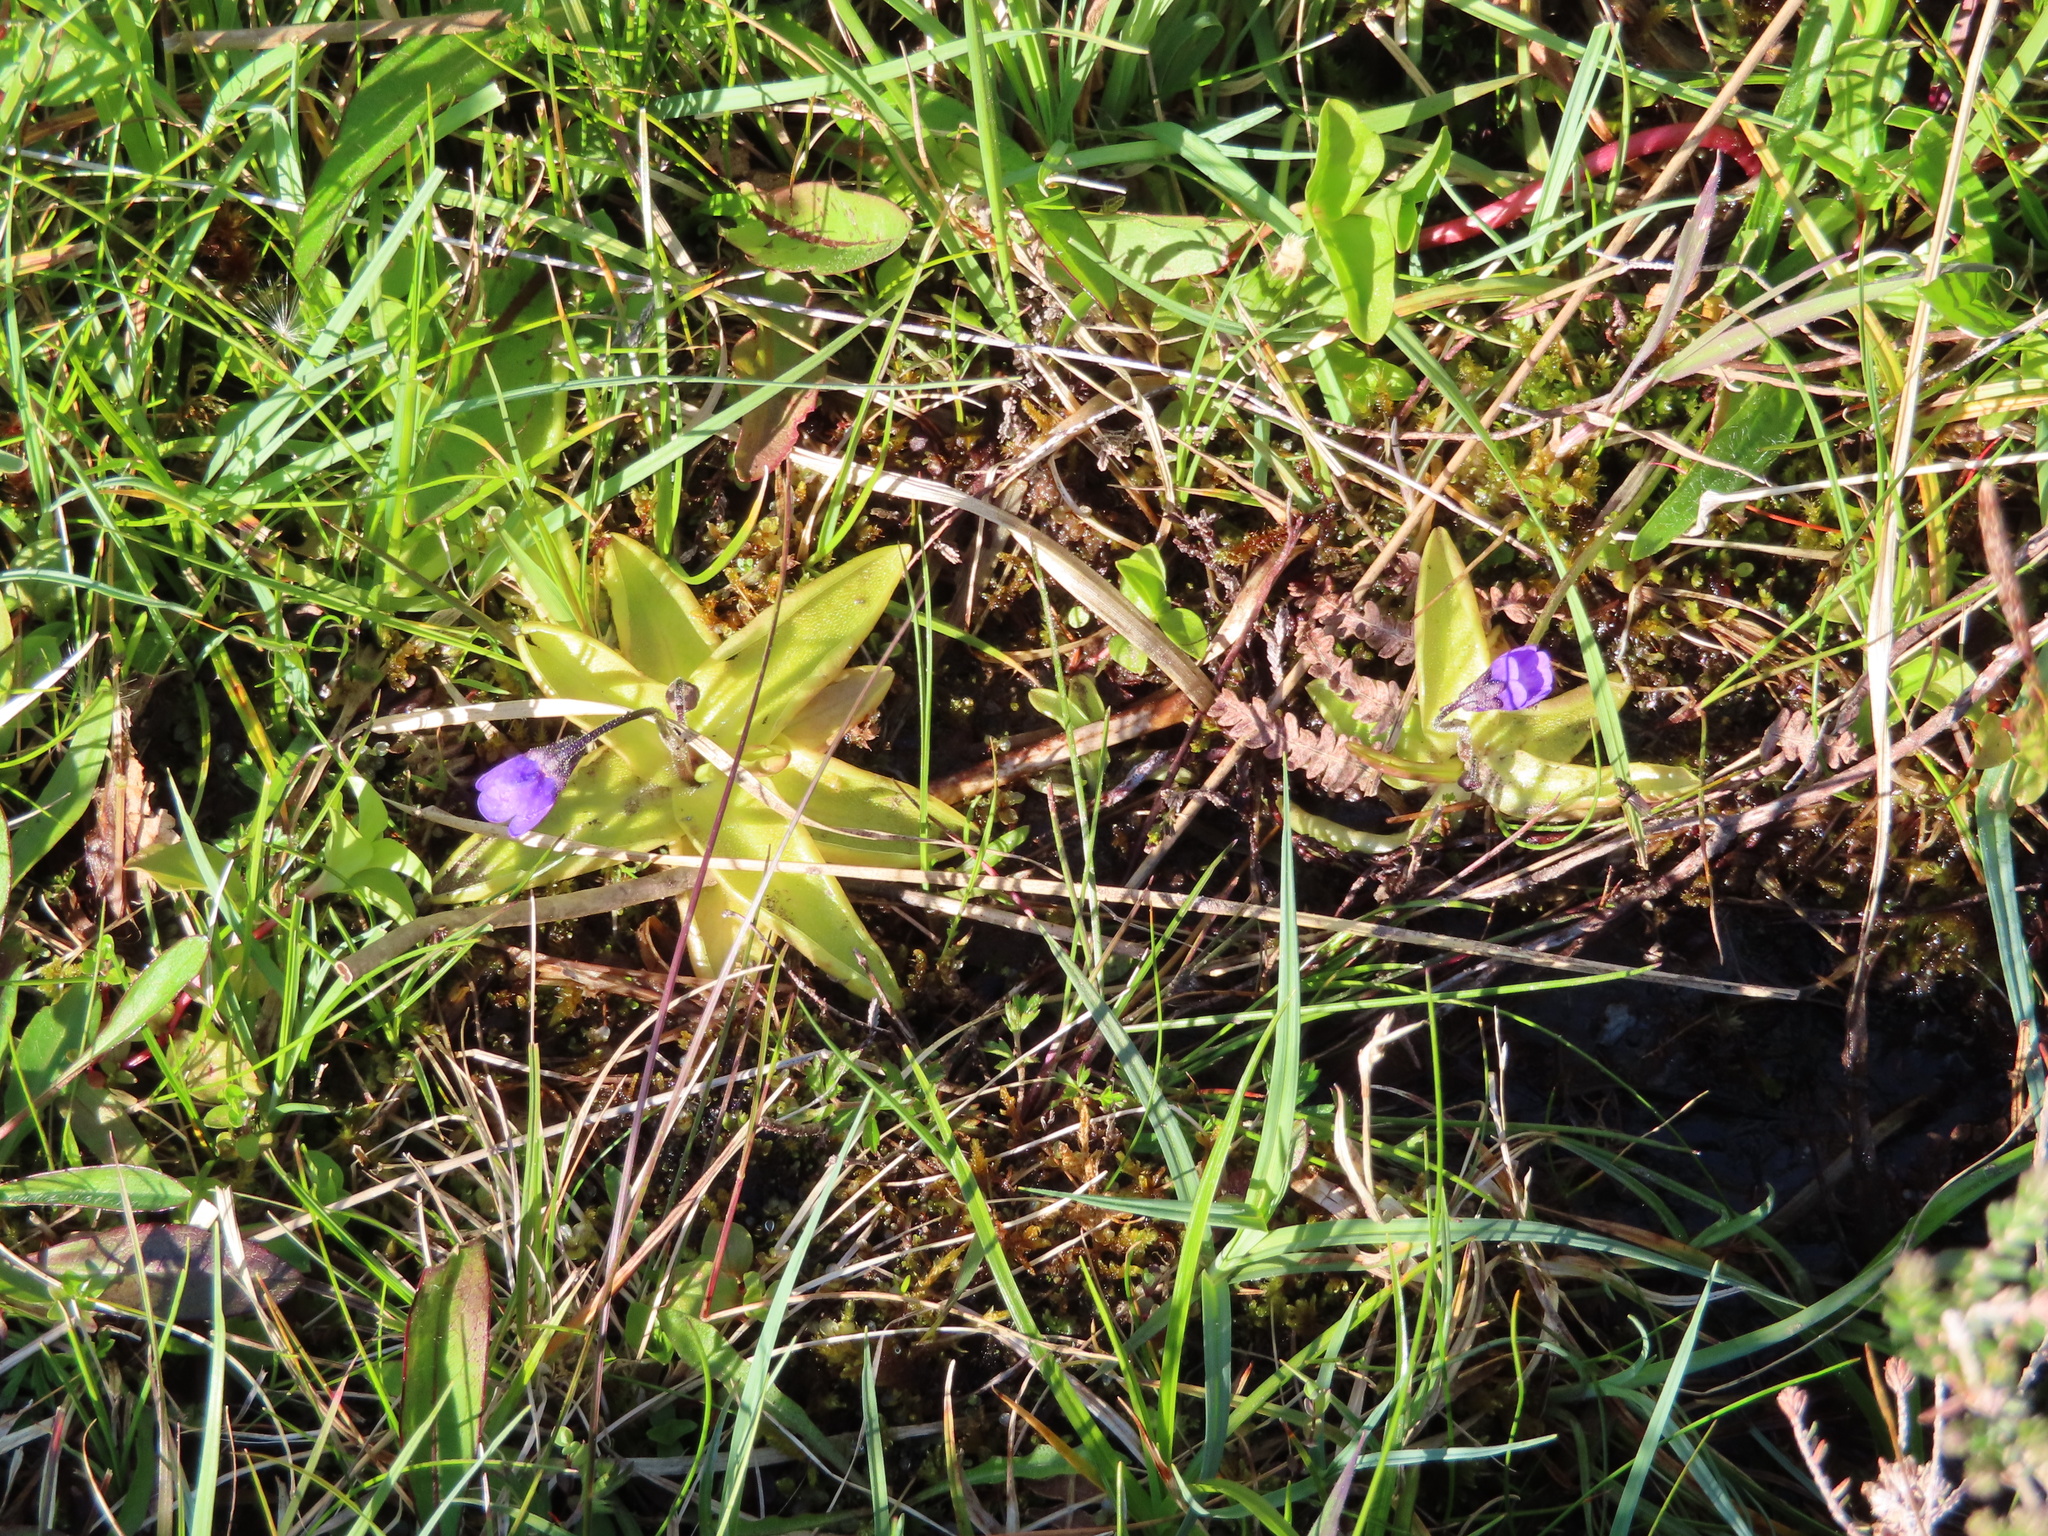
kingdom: Plantae
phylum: Tracheophyta
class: Magnoliopsida
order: Lamiales
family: Lentibulariaceae
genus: Pinguicula
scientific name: Pinguicula vulgaris
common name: Common butterwort
